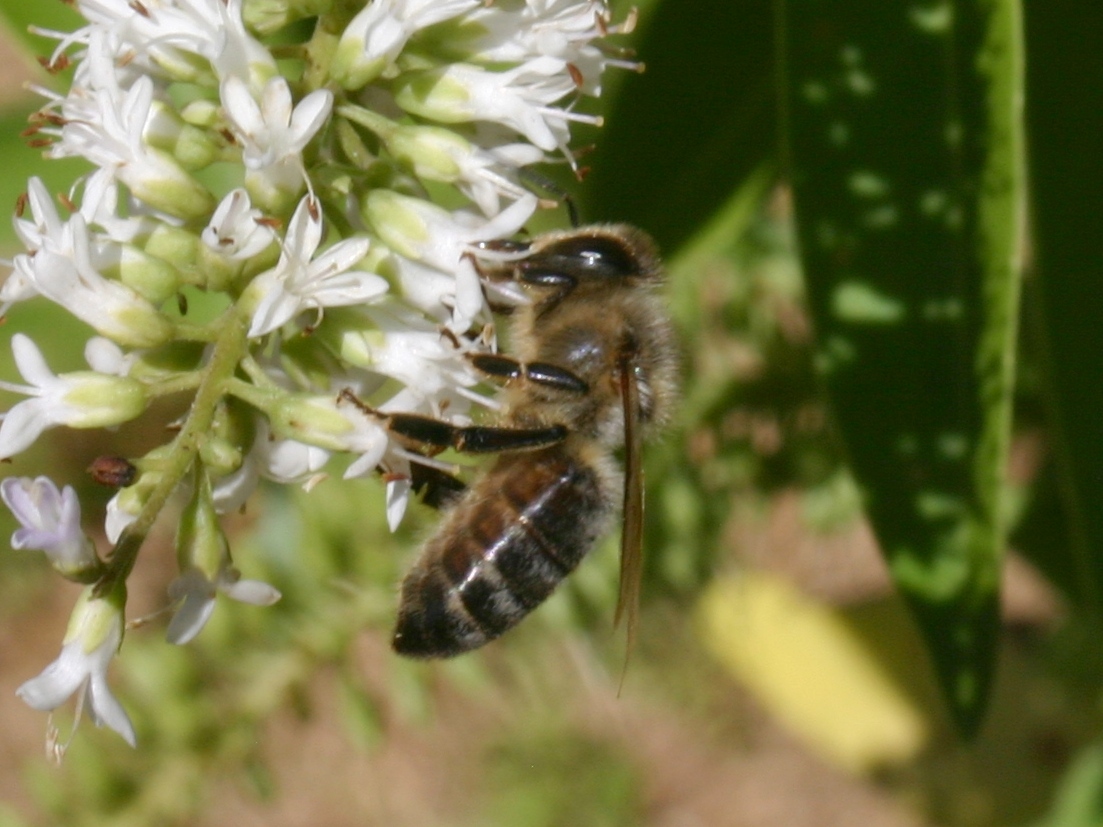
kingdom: Animalia
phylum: Arthropoda
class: Insecta
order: Hymenoptera
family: Apidae
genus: Apis
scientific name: Apis mellifera
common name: Honey bee
